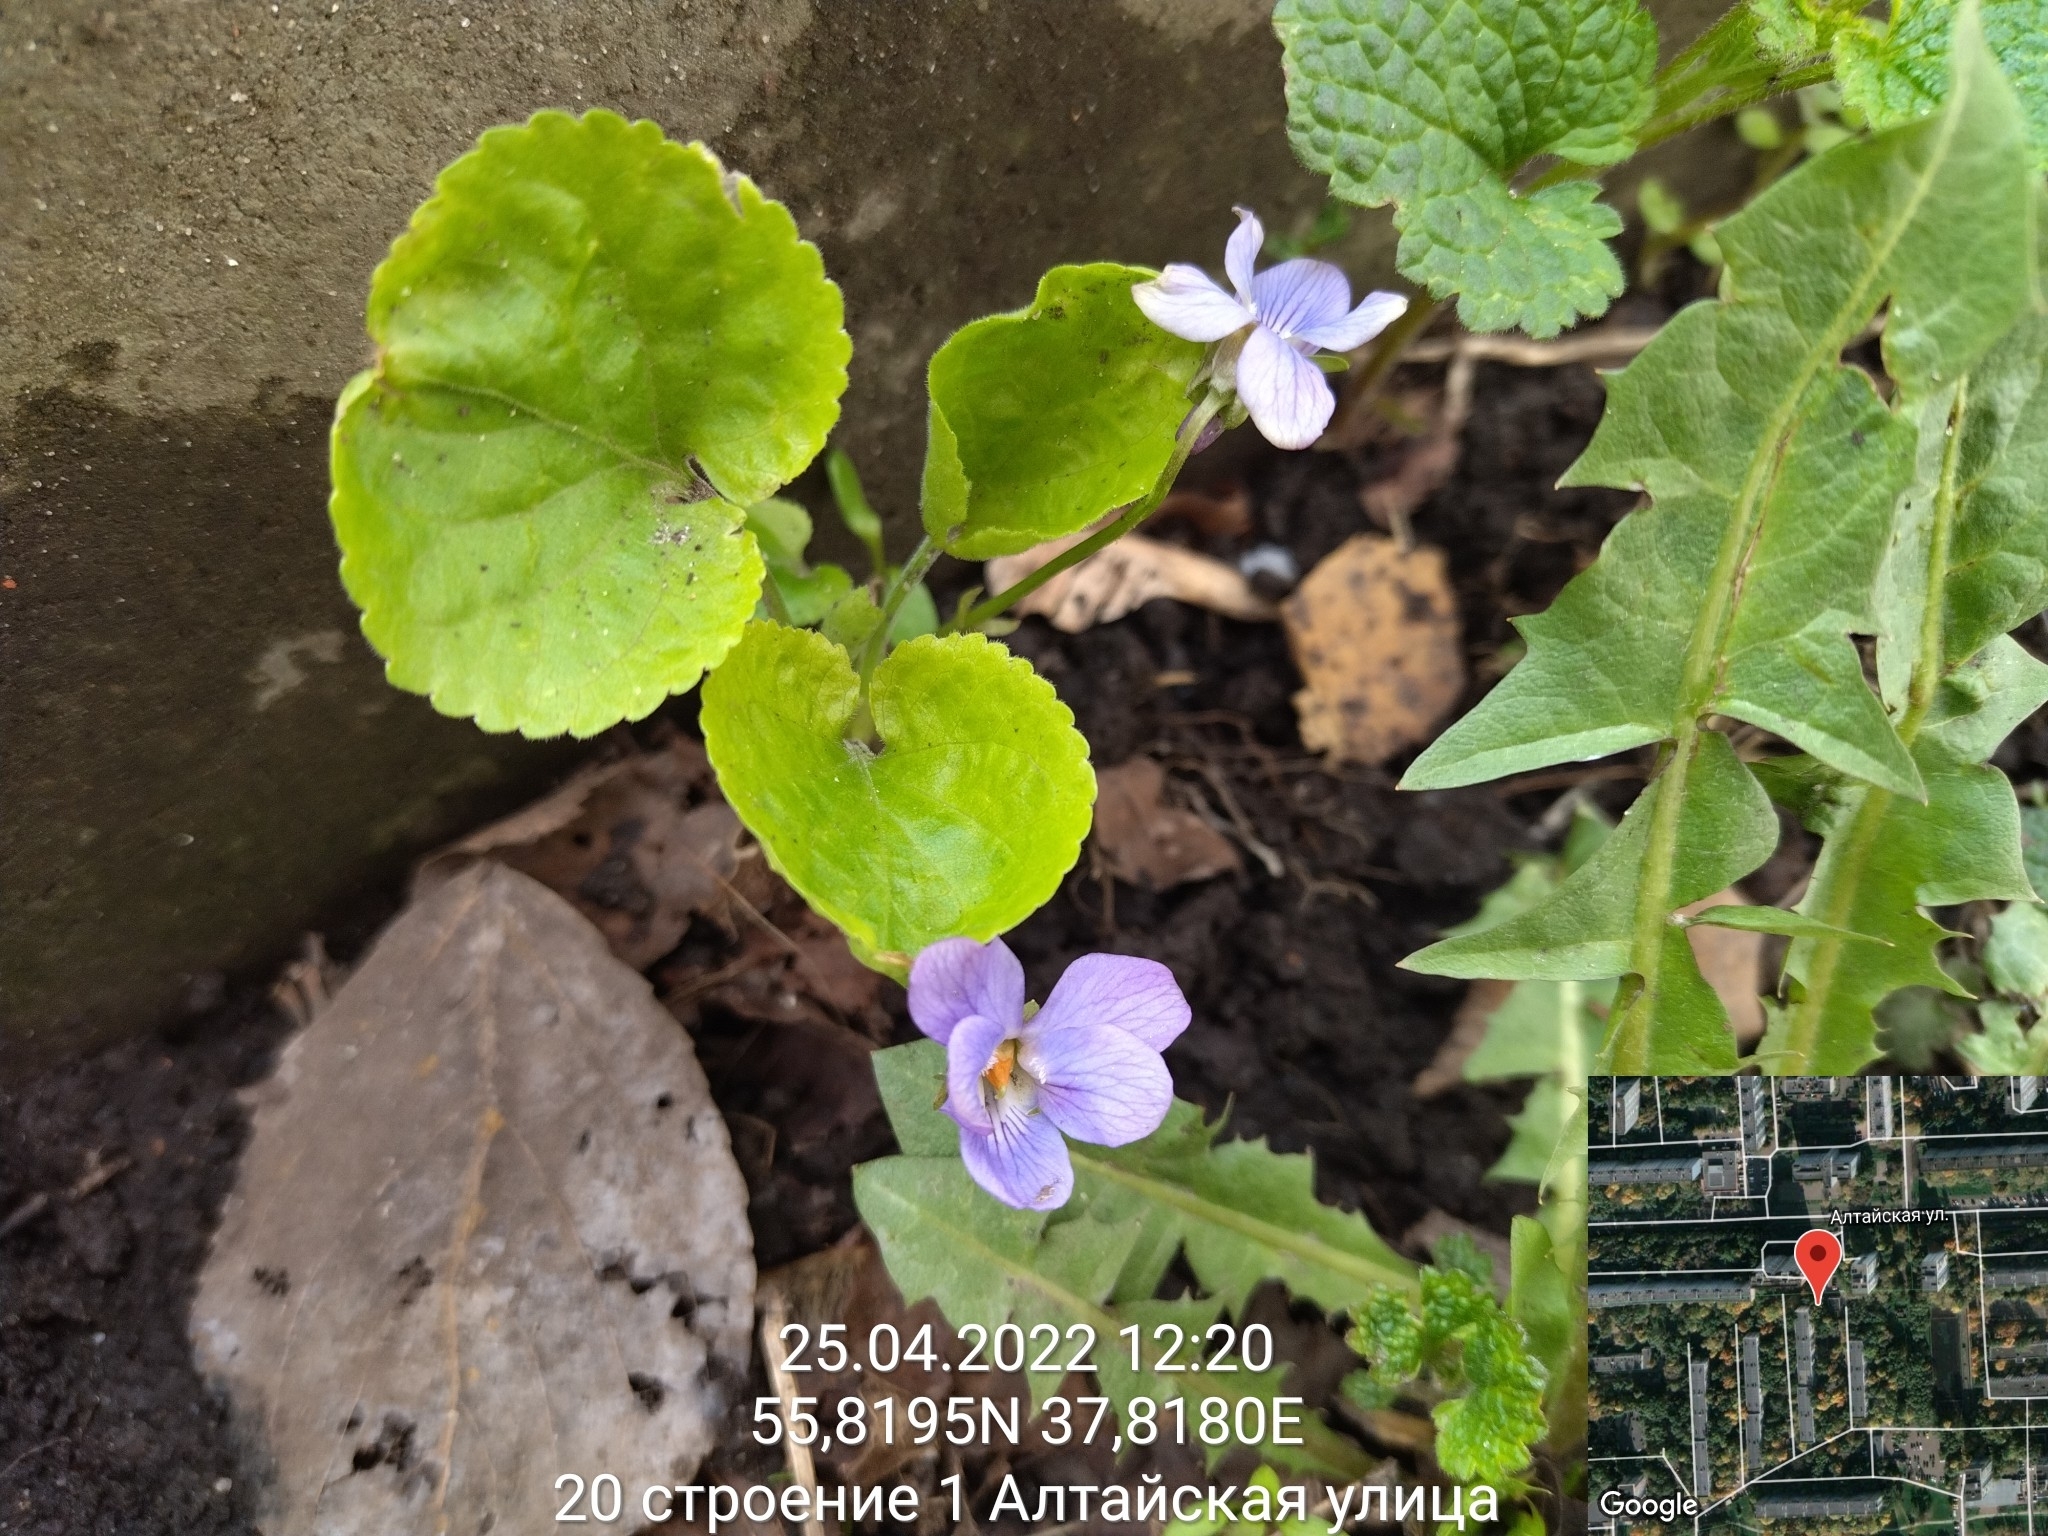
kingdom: Plantae
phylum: Tracheophyta
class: Magnoliopsida
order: Malpighiales
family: Violaceae
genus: Viola
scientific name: Viola odorata
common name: Sweet violet
